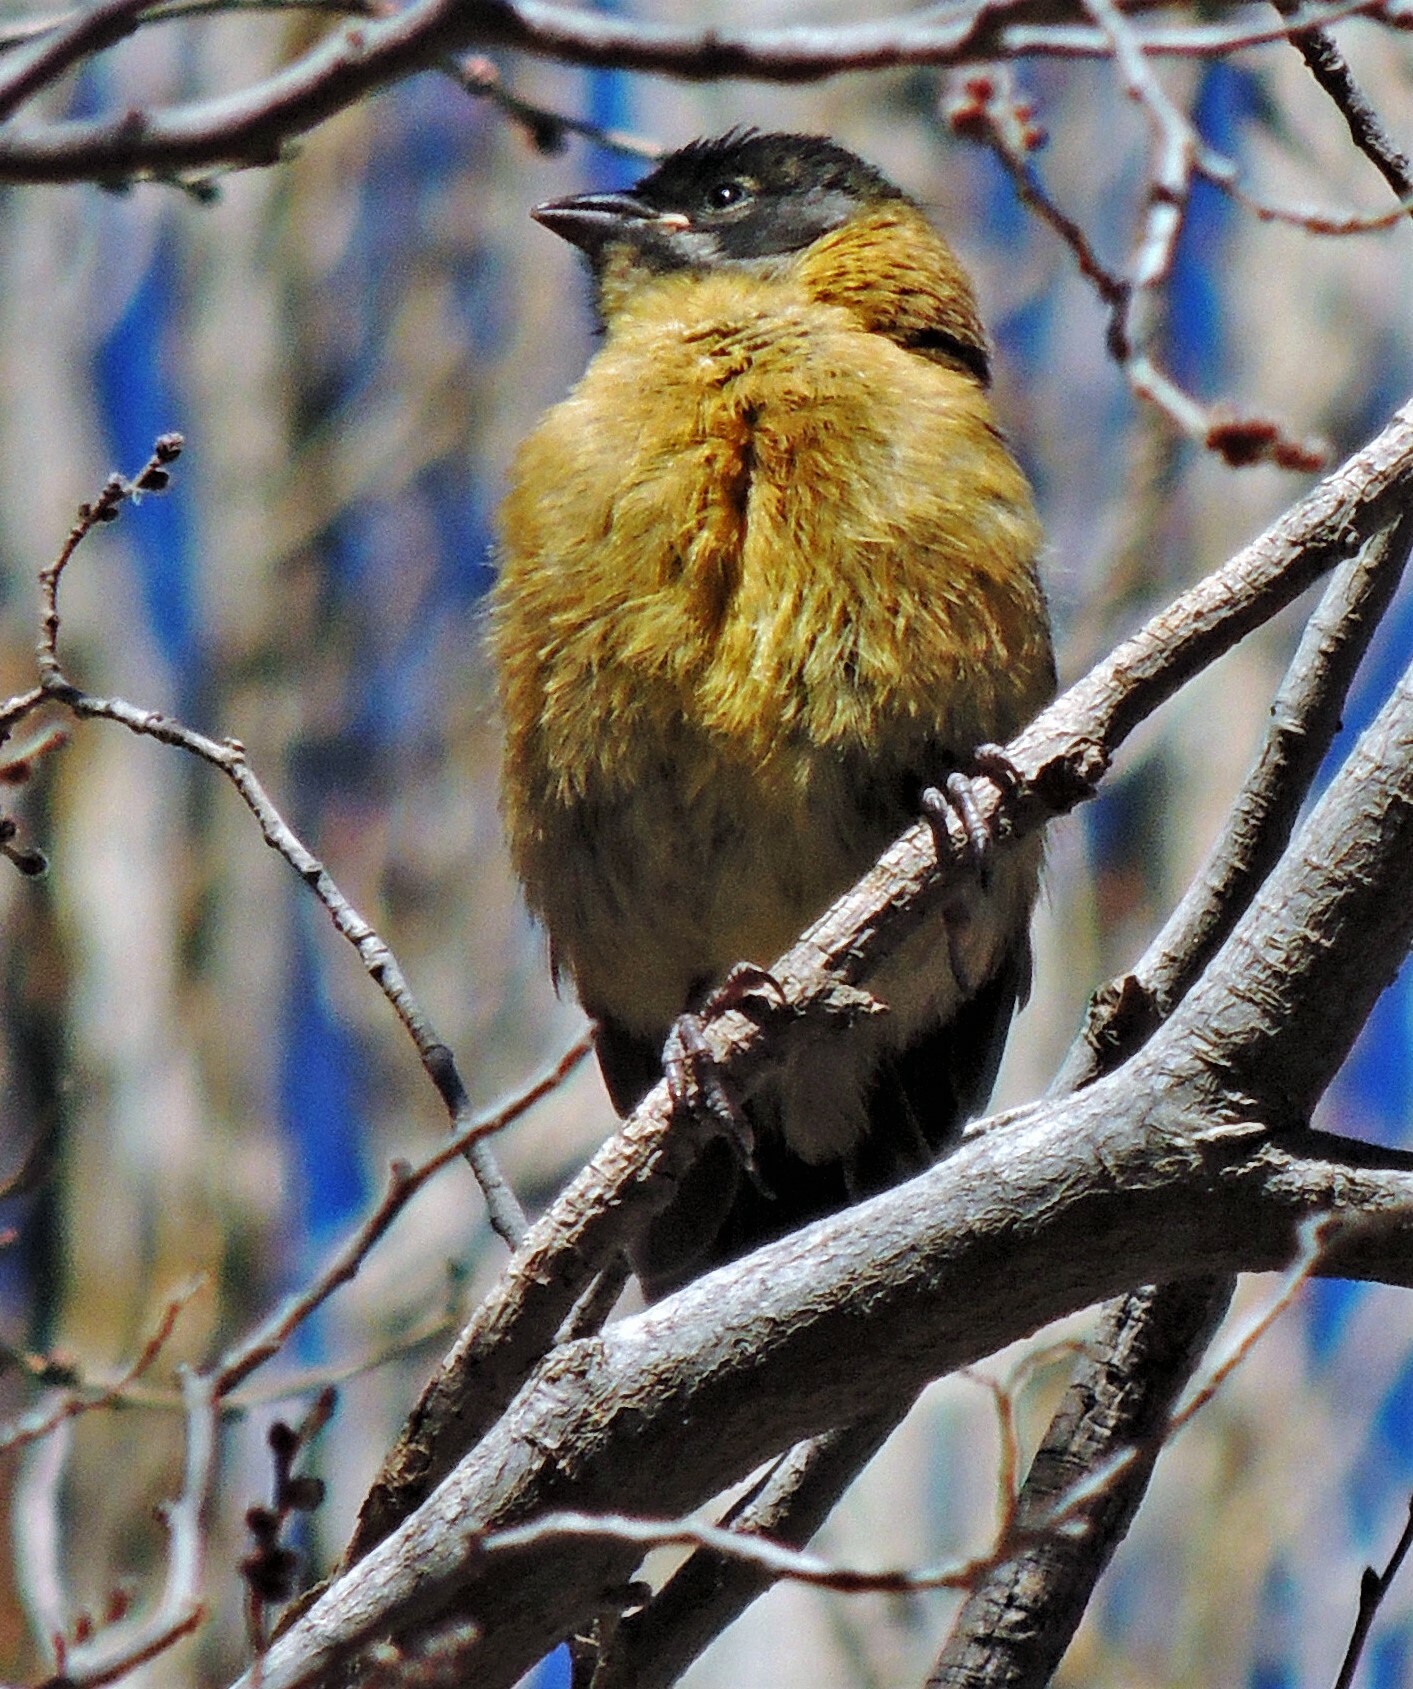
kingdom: Animalia
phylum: Chordata
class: Aves
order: Passeriformes
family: Thraupidae
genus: Phrygilus
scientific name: Phrygilus atriceps
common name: Black-hooded sierra finch
